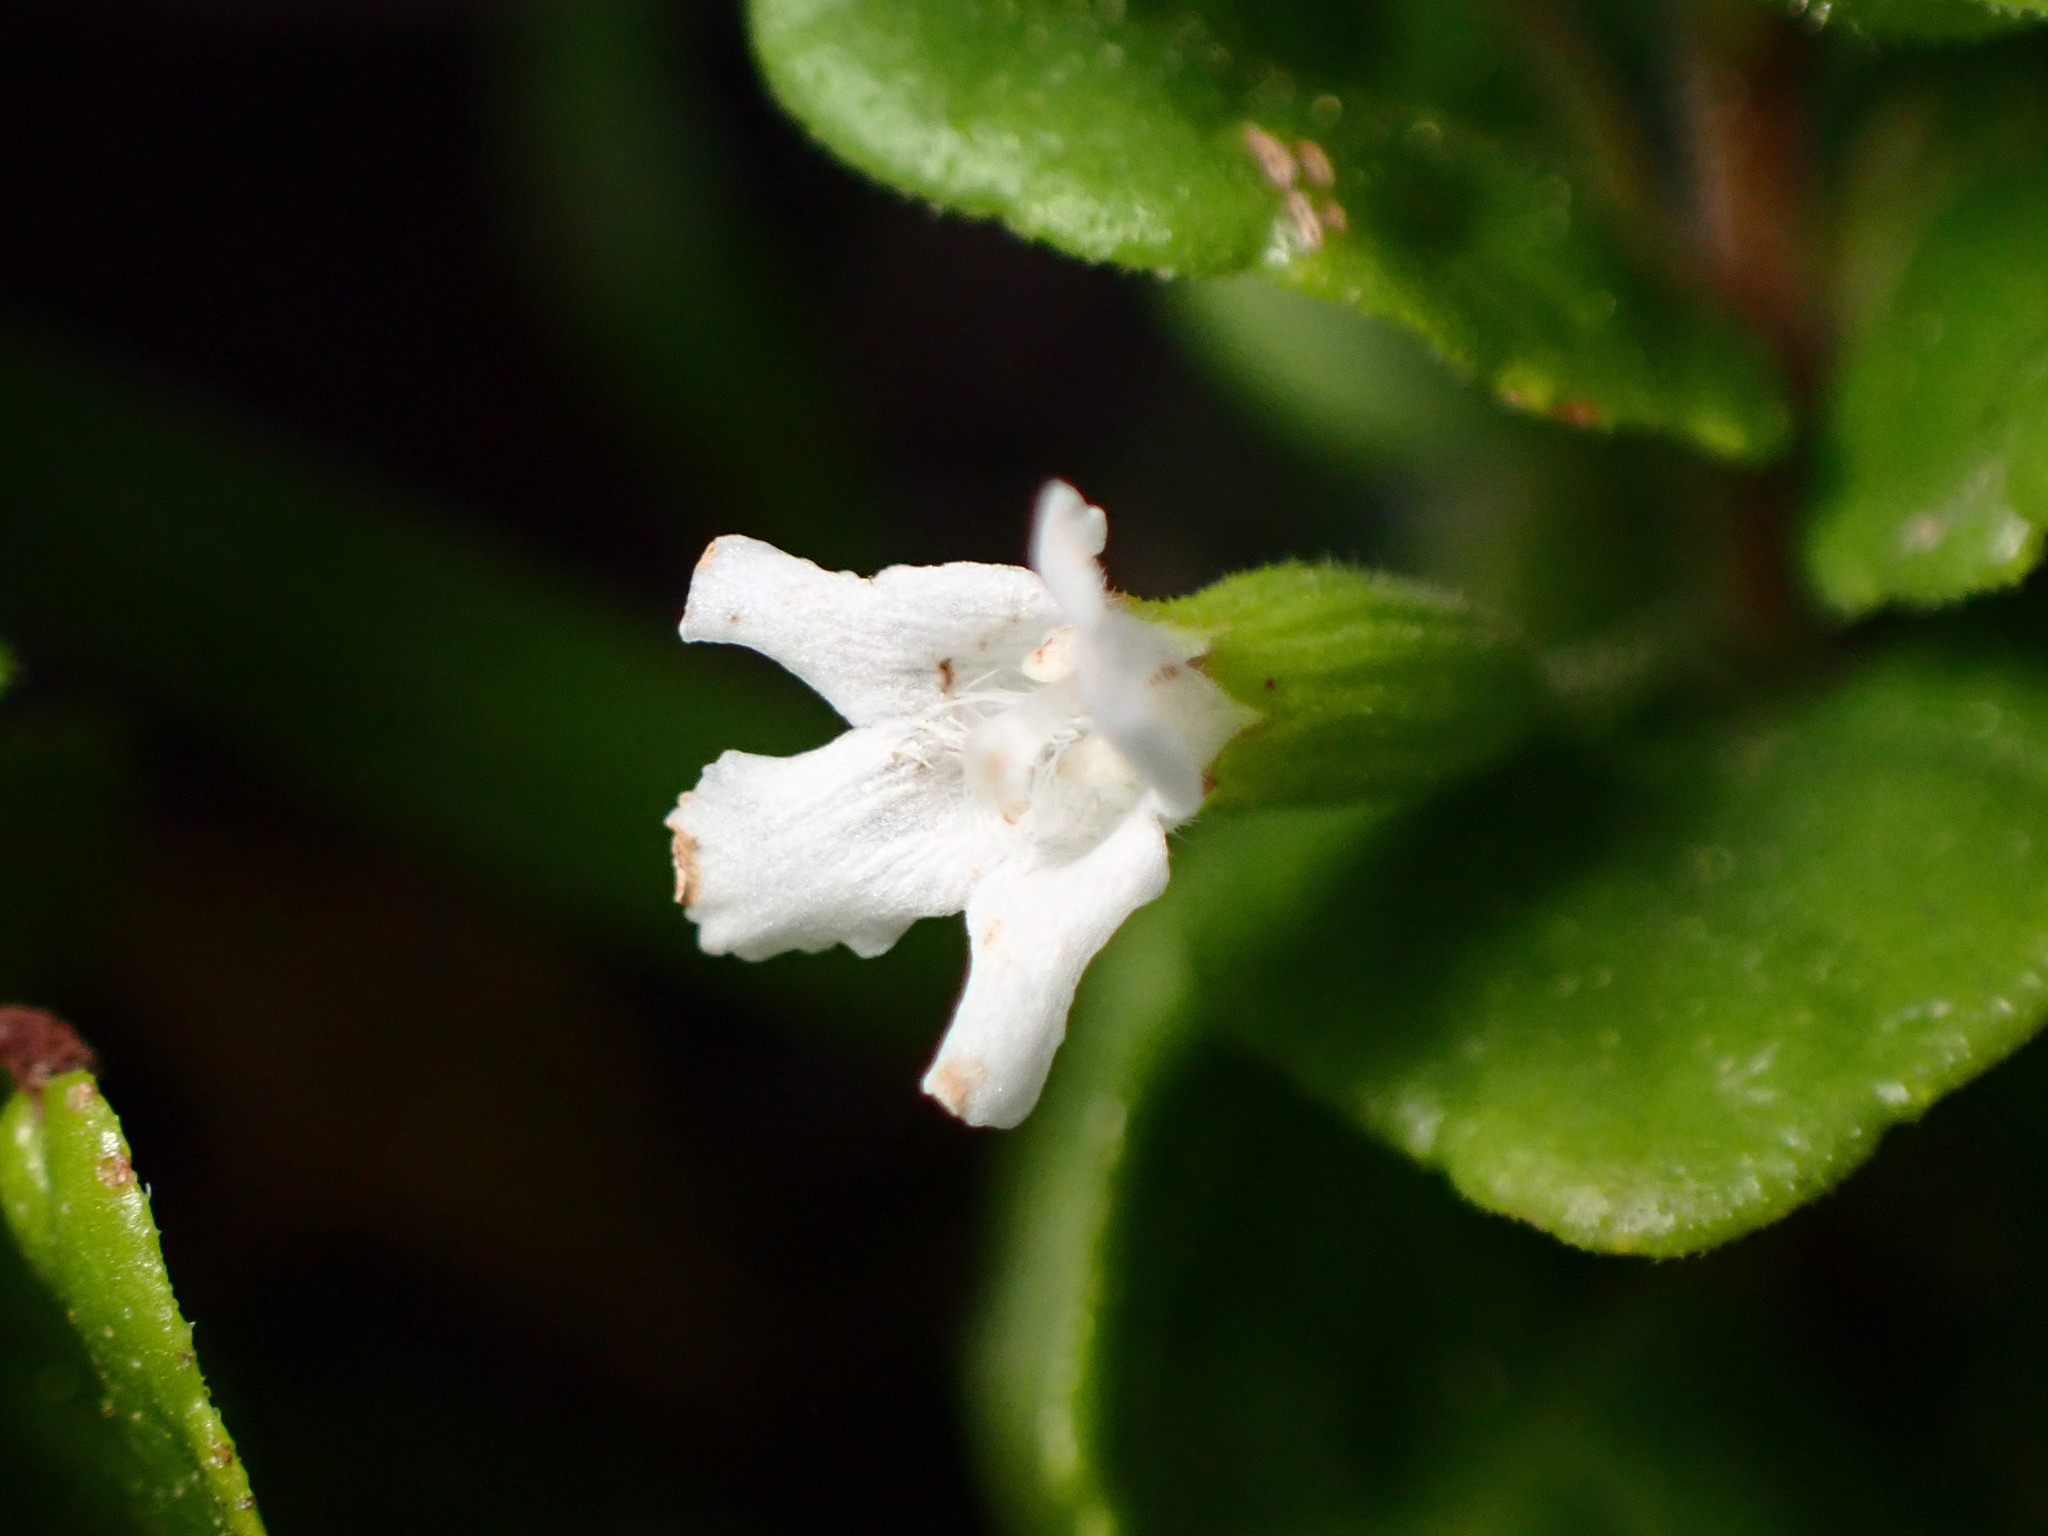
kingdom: Plantae
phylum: Tracheophyta
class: Magnoliopsida
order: Lamiales
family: Lamiaceae
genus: Micromeria
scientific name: Micromeria douglasii
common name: Yerba buena
